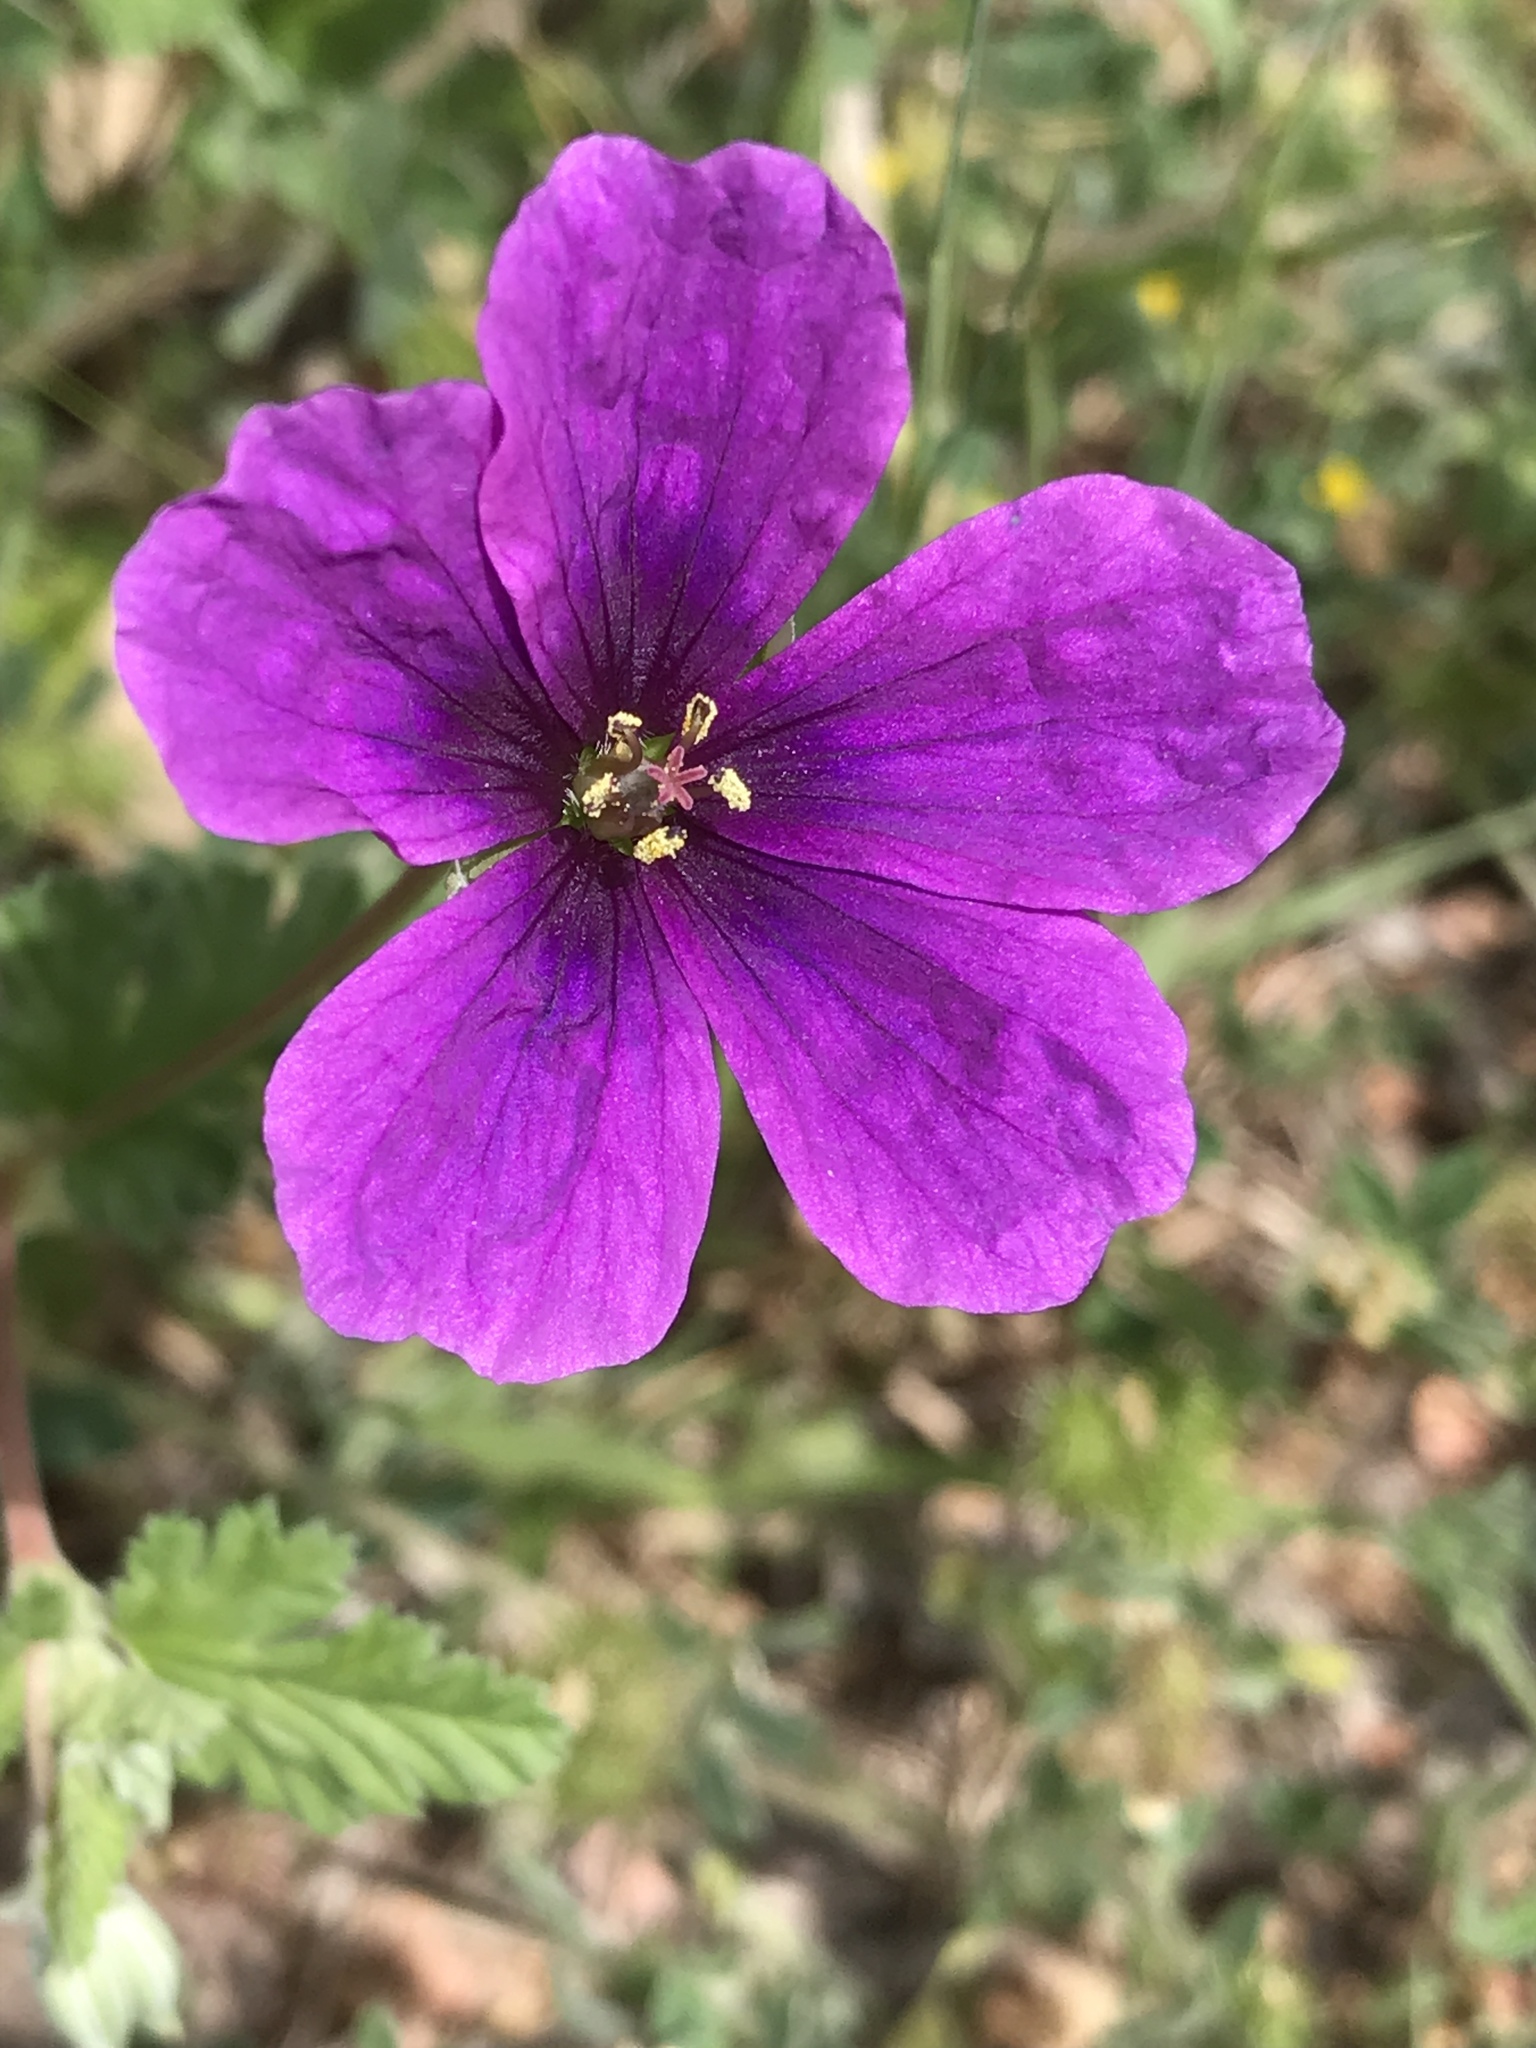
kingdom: Plantae
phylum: Tracheophyta
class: Magnoliopsida
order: Geraniales
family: Geraniaceae
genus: Erodium
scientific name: Erodium texanum
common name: Texas stork's-bill
